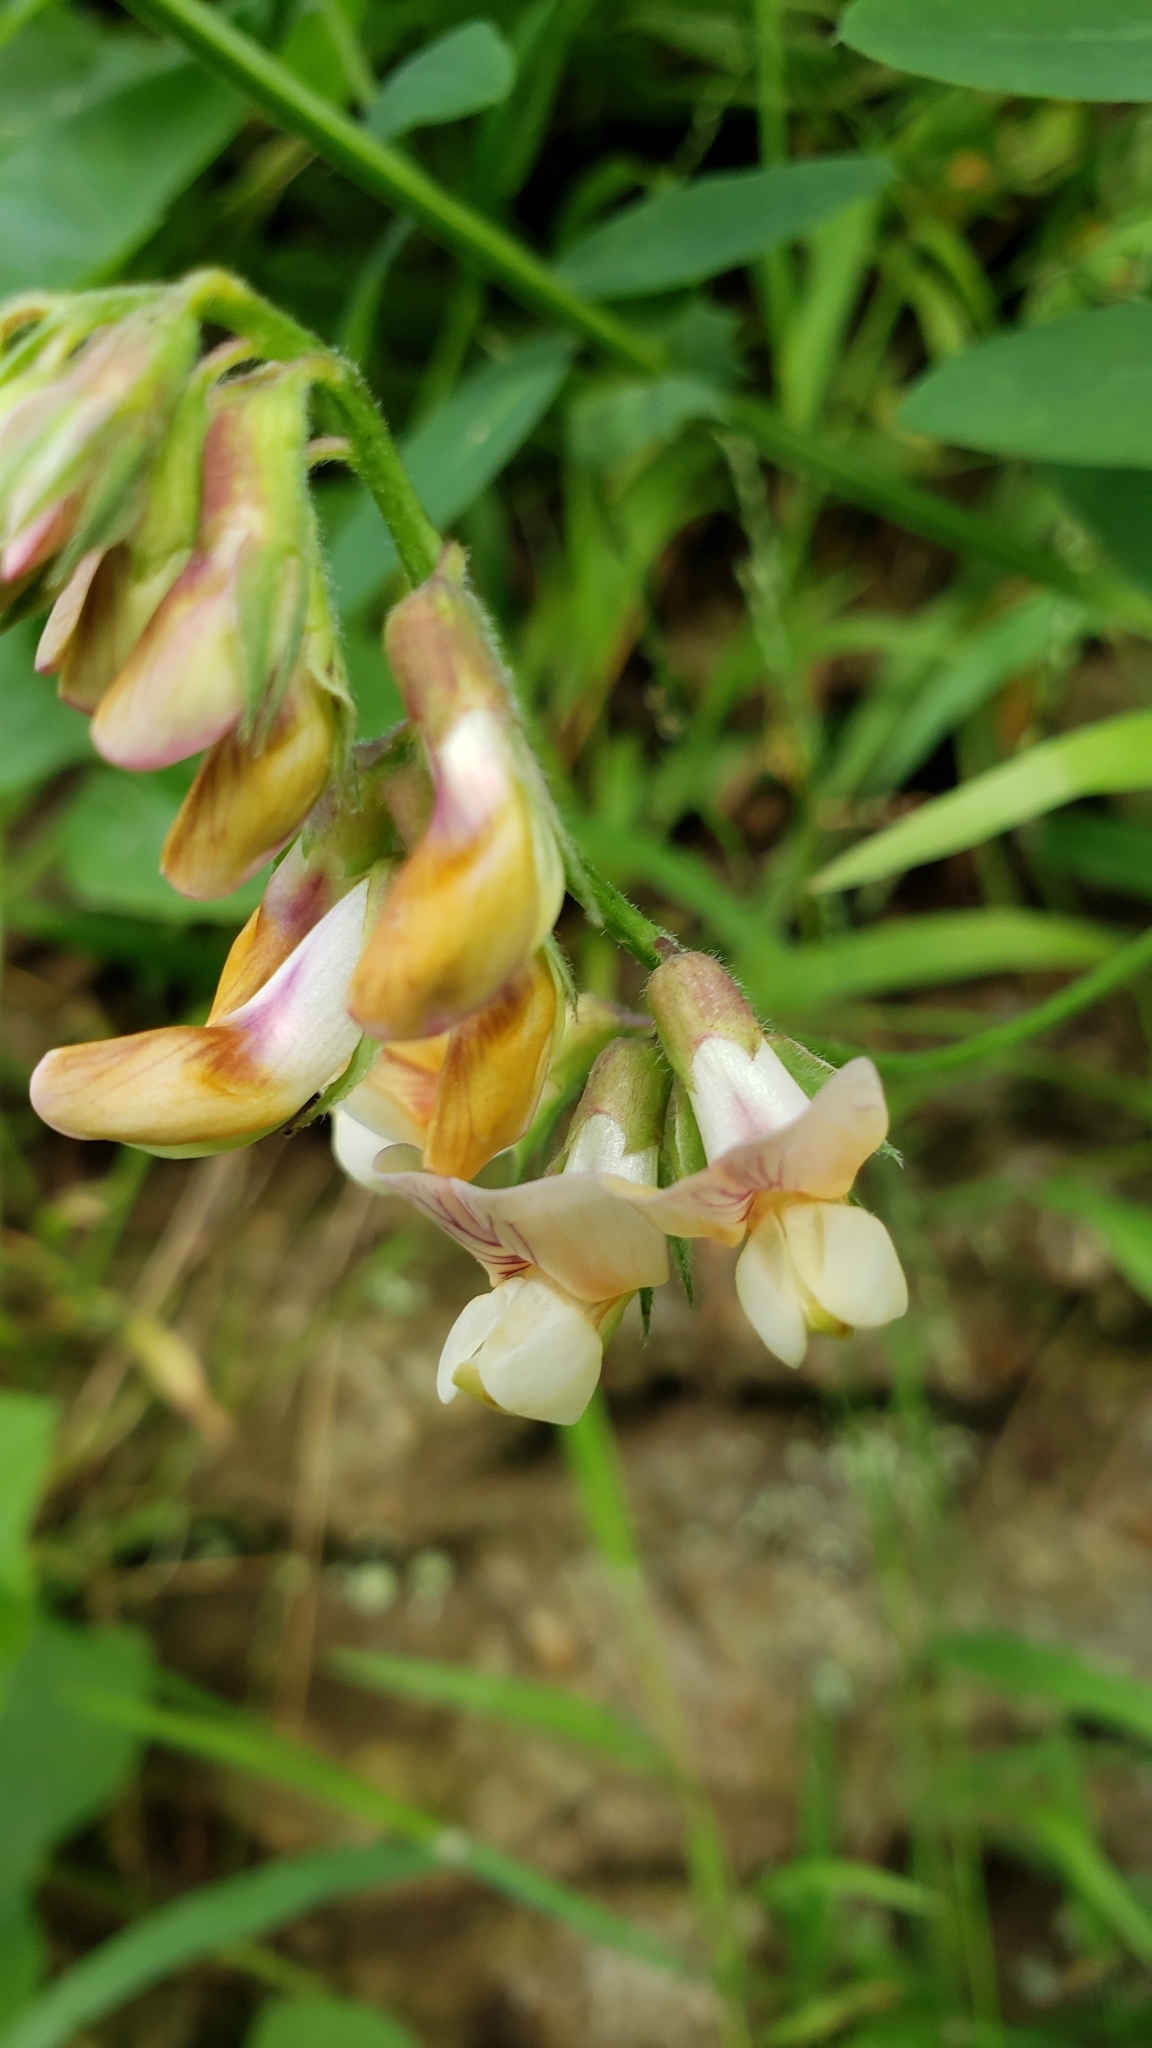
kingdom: Plantae
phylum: Tracheophyta
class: Magnoliopsida
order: Fabales
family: Fabaceae
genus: Lathyrus
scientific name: Lathyrus vestitus
